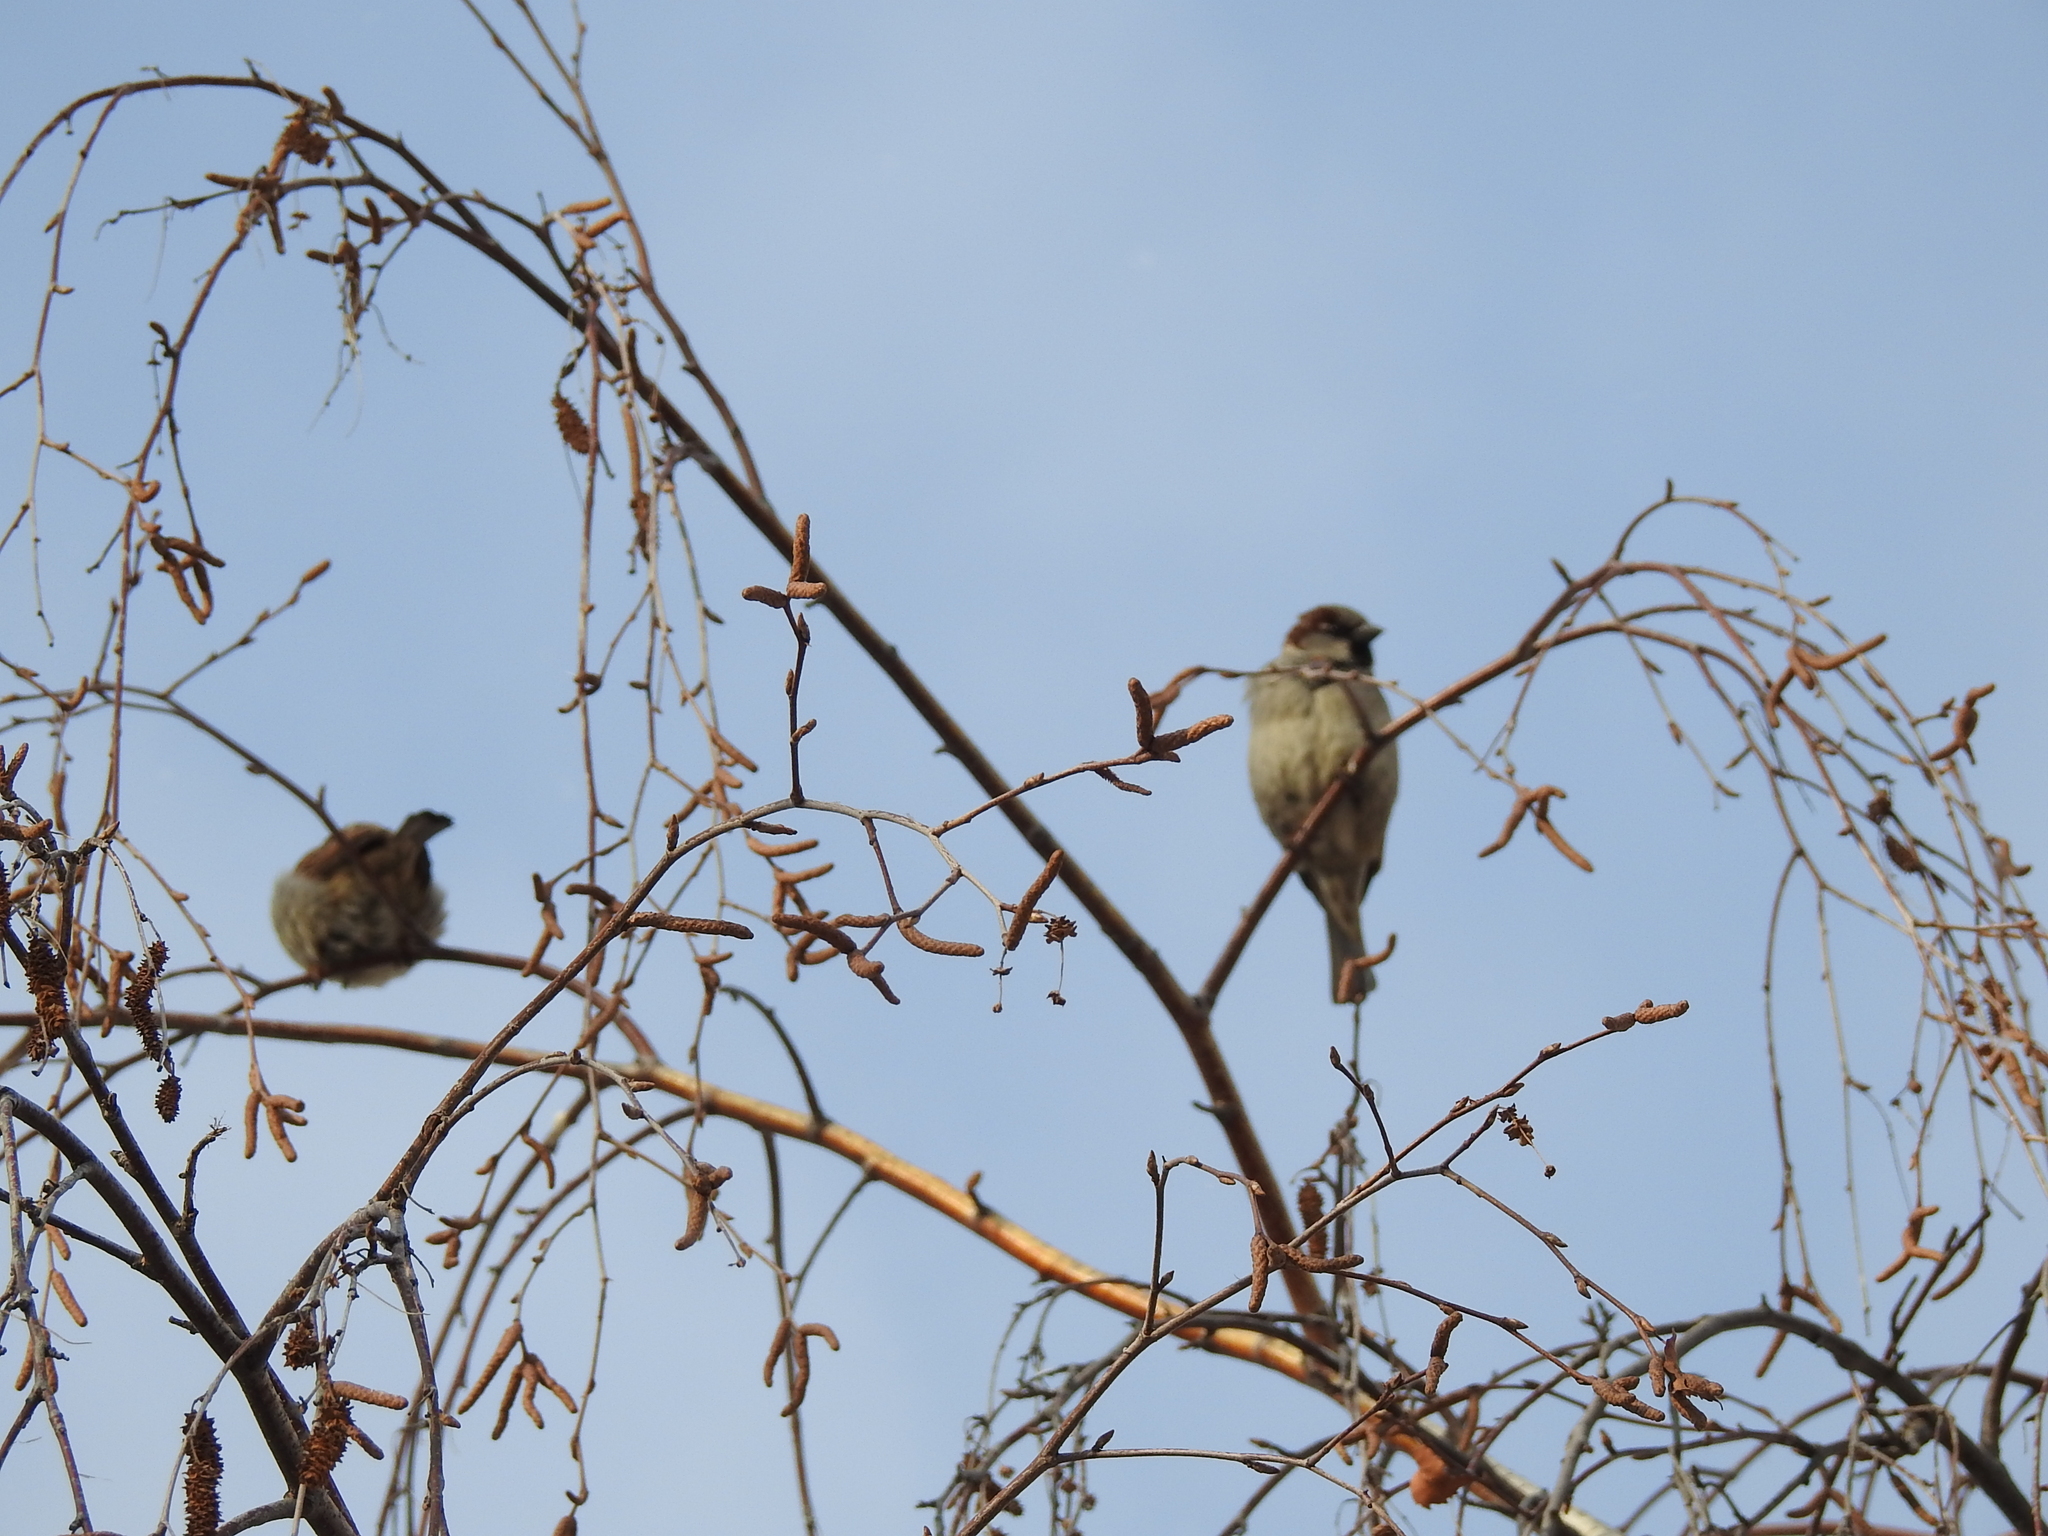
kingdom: Animalia
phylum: Chordata
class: Aves
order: Passeriformes
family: Passeridae
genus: Passer
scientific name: Passer domesticus
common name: House sparrow
